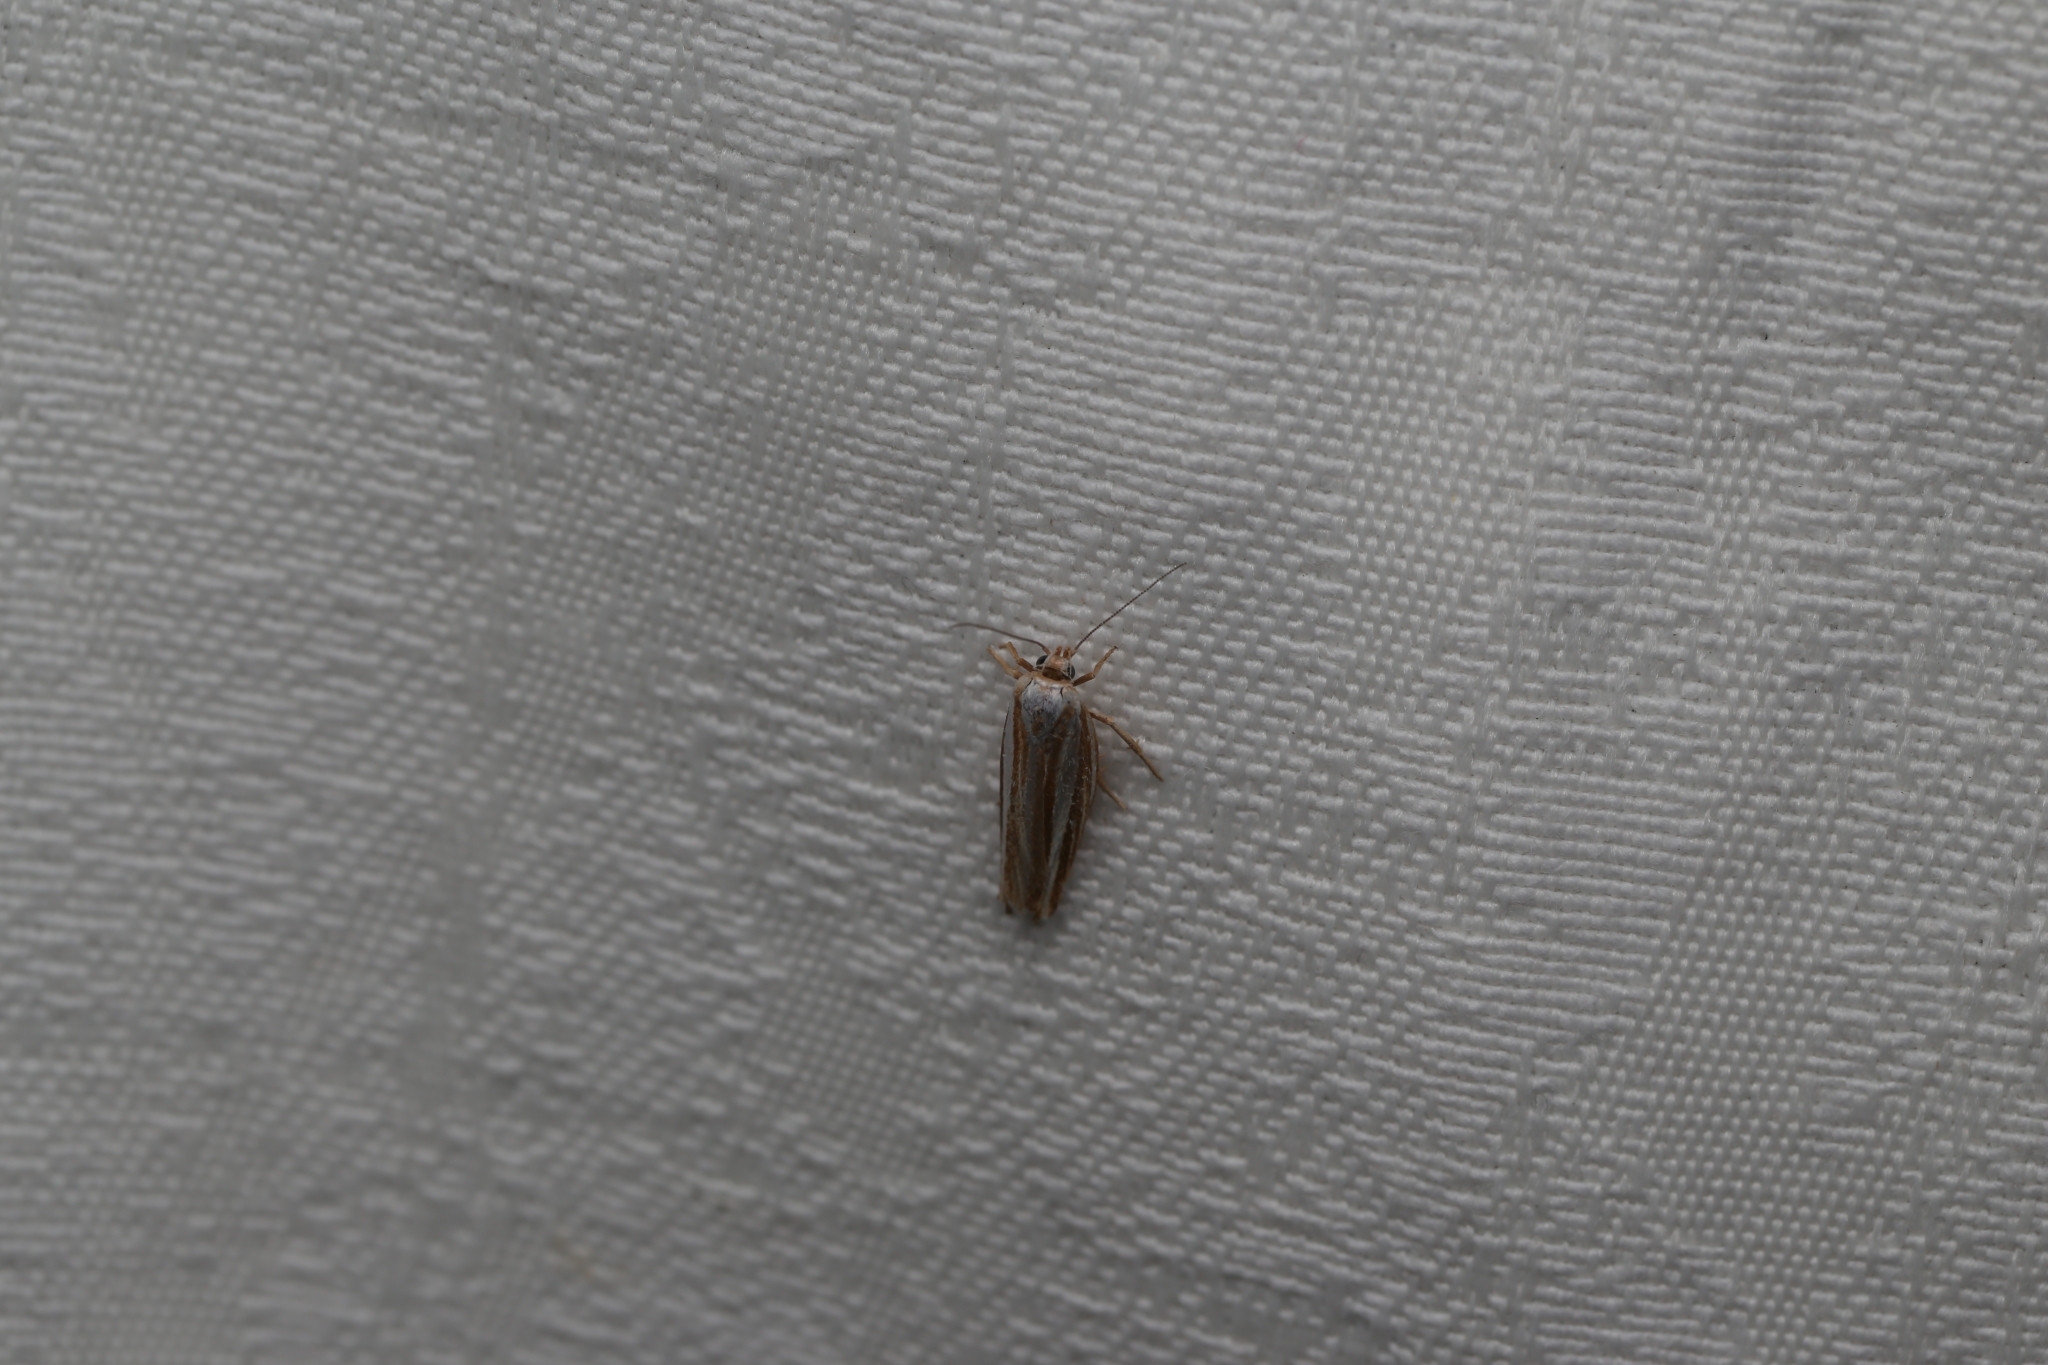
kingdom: Animalia
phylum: Arthropoda
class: Insecta
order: Lepidoptera
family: Xyloryctidae
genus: Catoryctis
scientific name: Catoryctis subparallela
